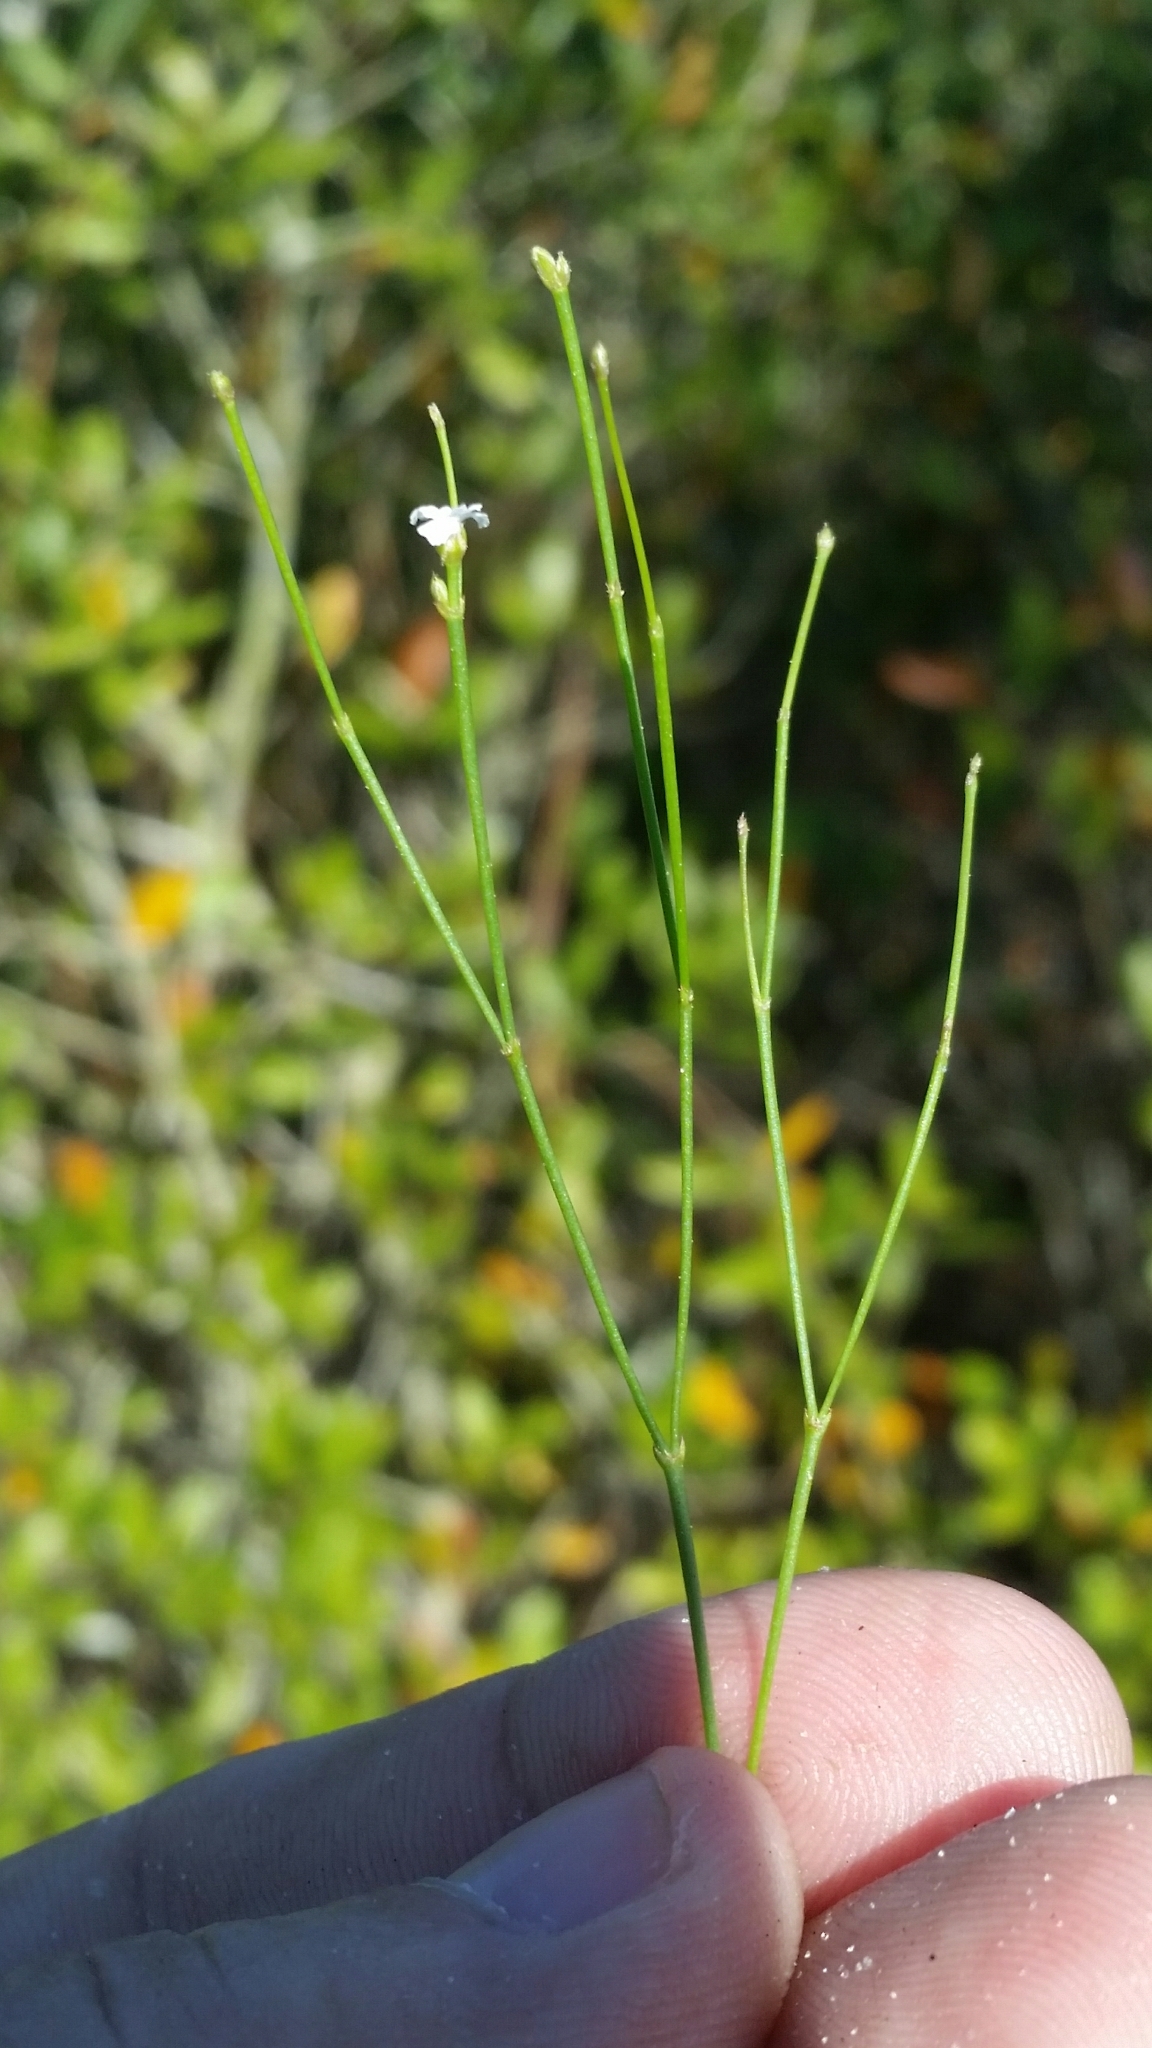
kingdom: Plantae
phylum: Tracheophyta
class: Magnoliopsida
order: Caryophyllales
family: Caryophyllaceae
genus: Stipulicida
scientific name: Stipulicida setacea
